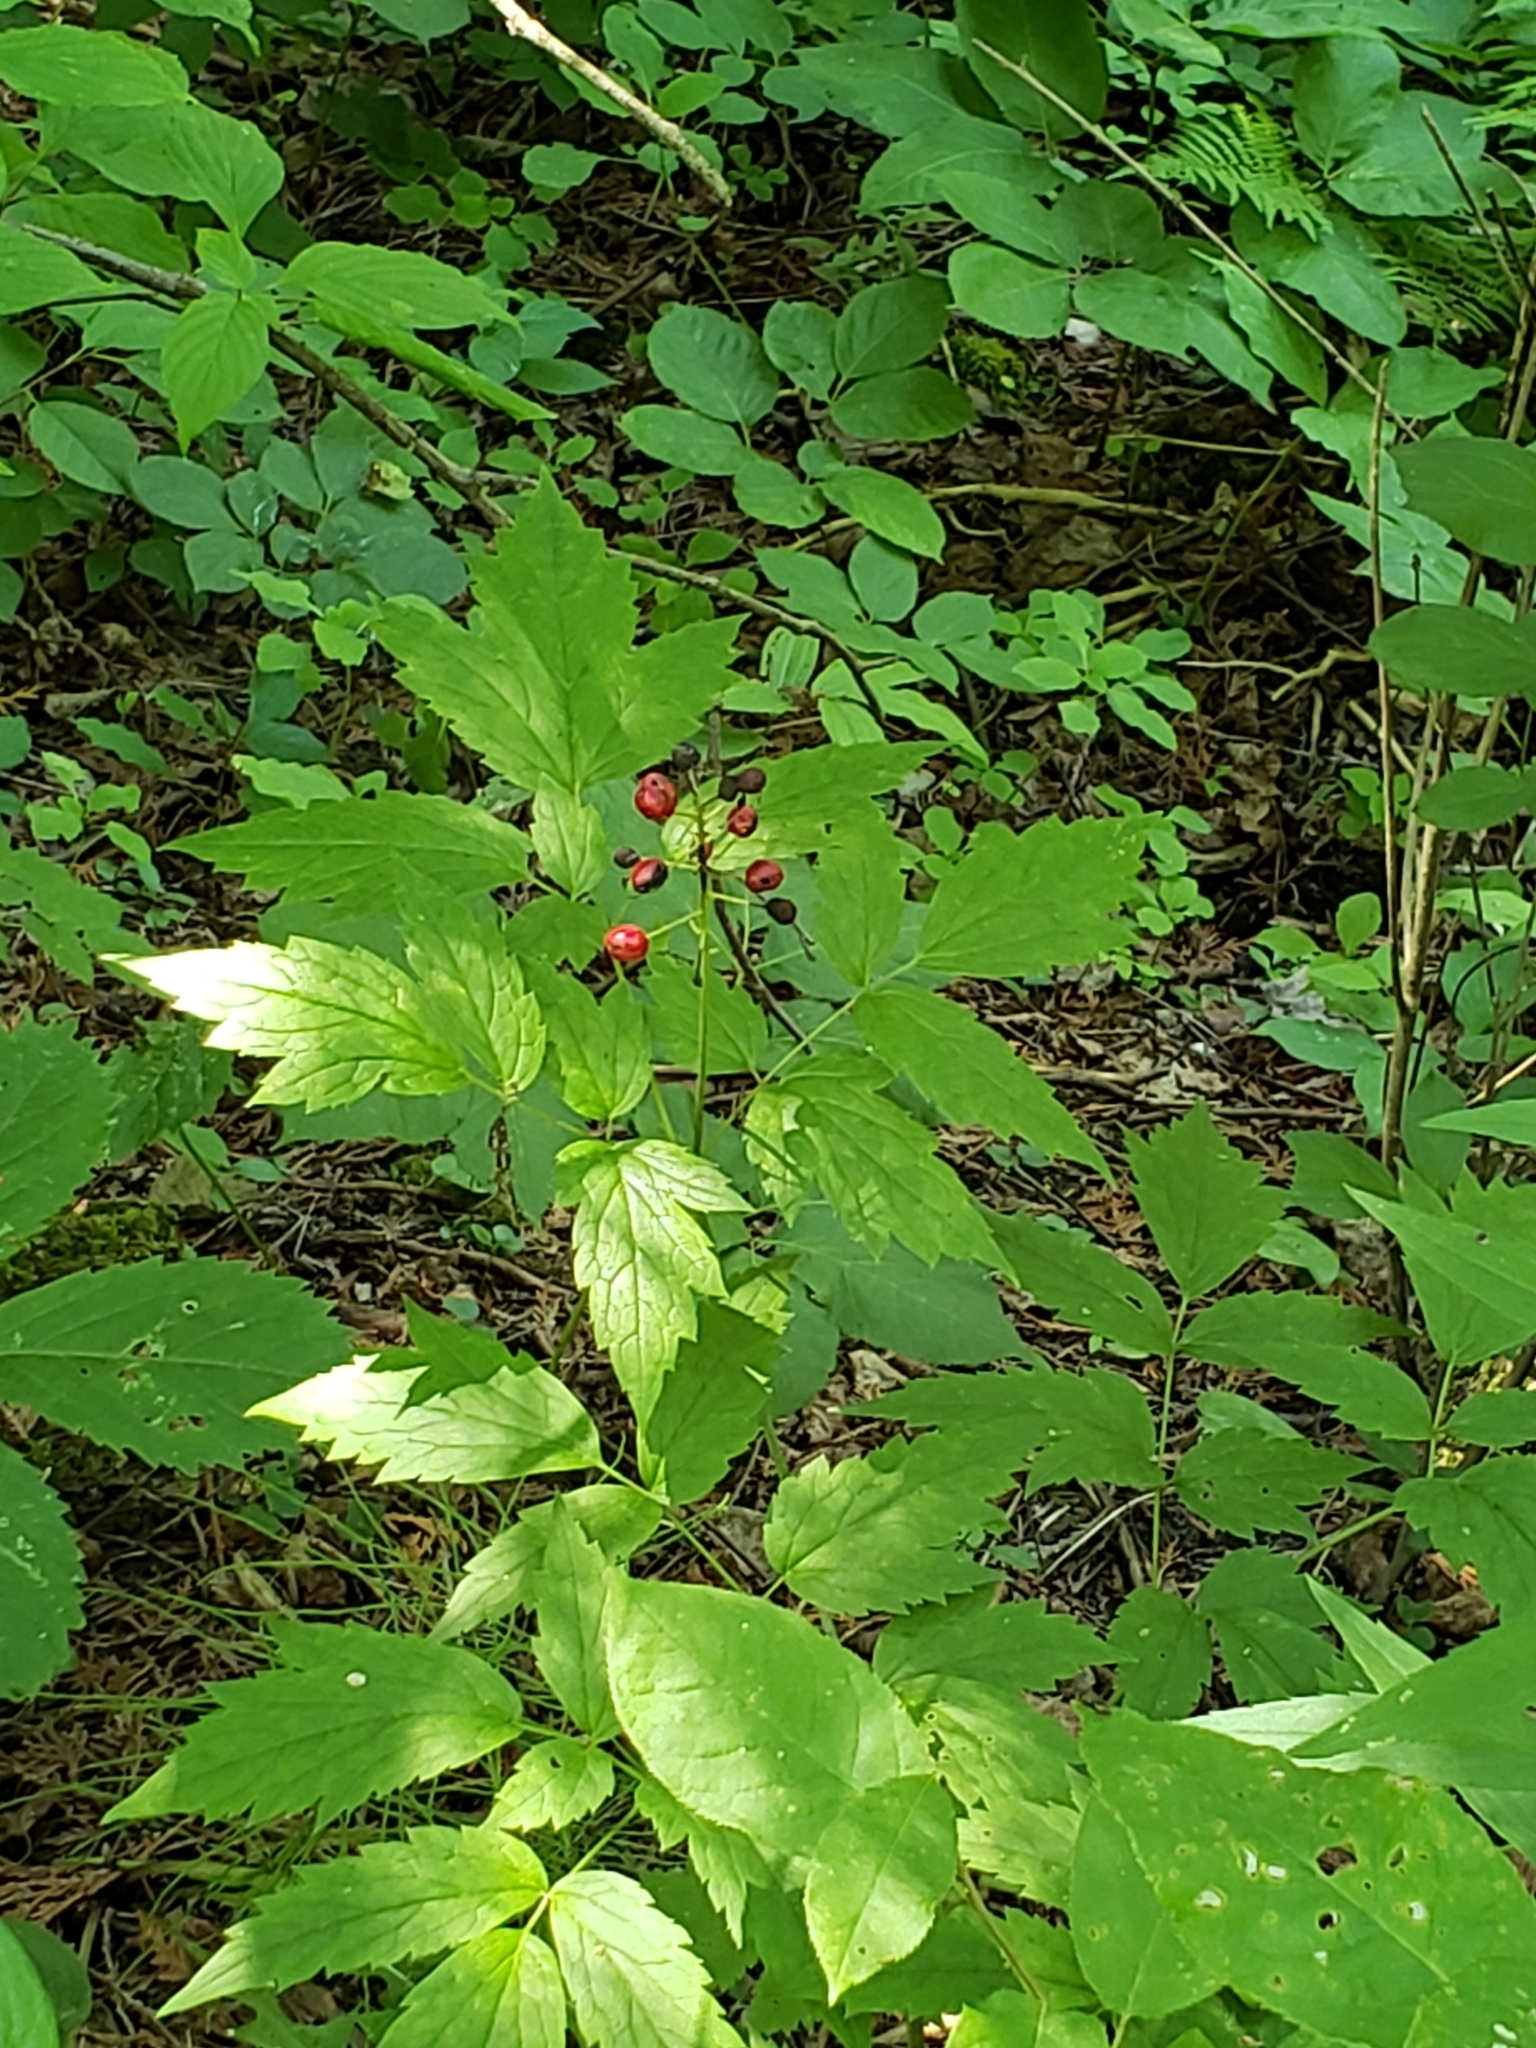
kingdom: Plantae
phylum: Tracheophyta
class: Magnoliopsida
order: Ranunculales
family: Ranunculaceae
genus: Actaea
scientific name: Actaea rubra
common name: Red baneberry
